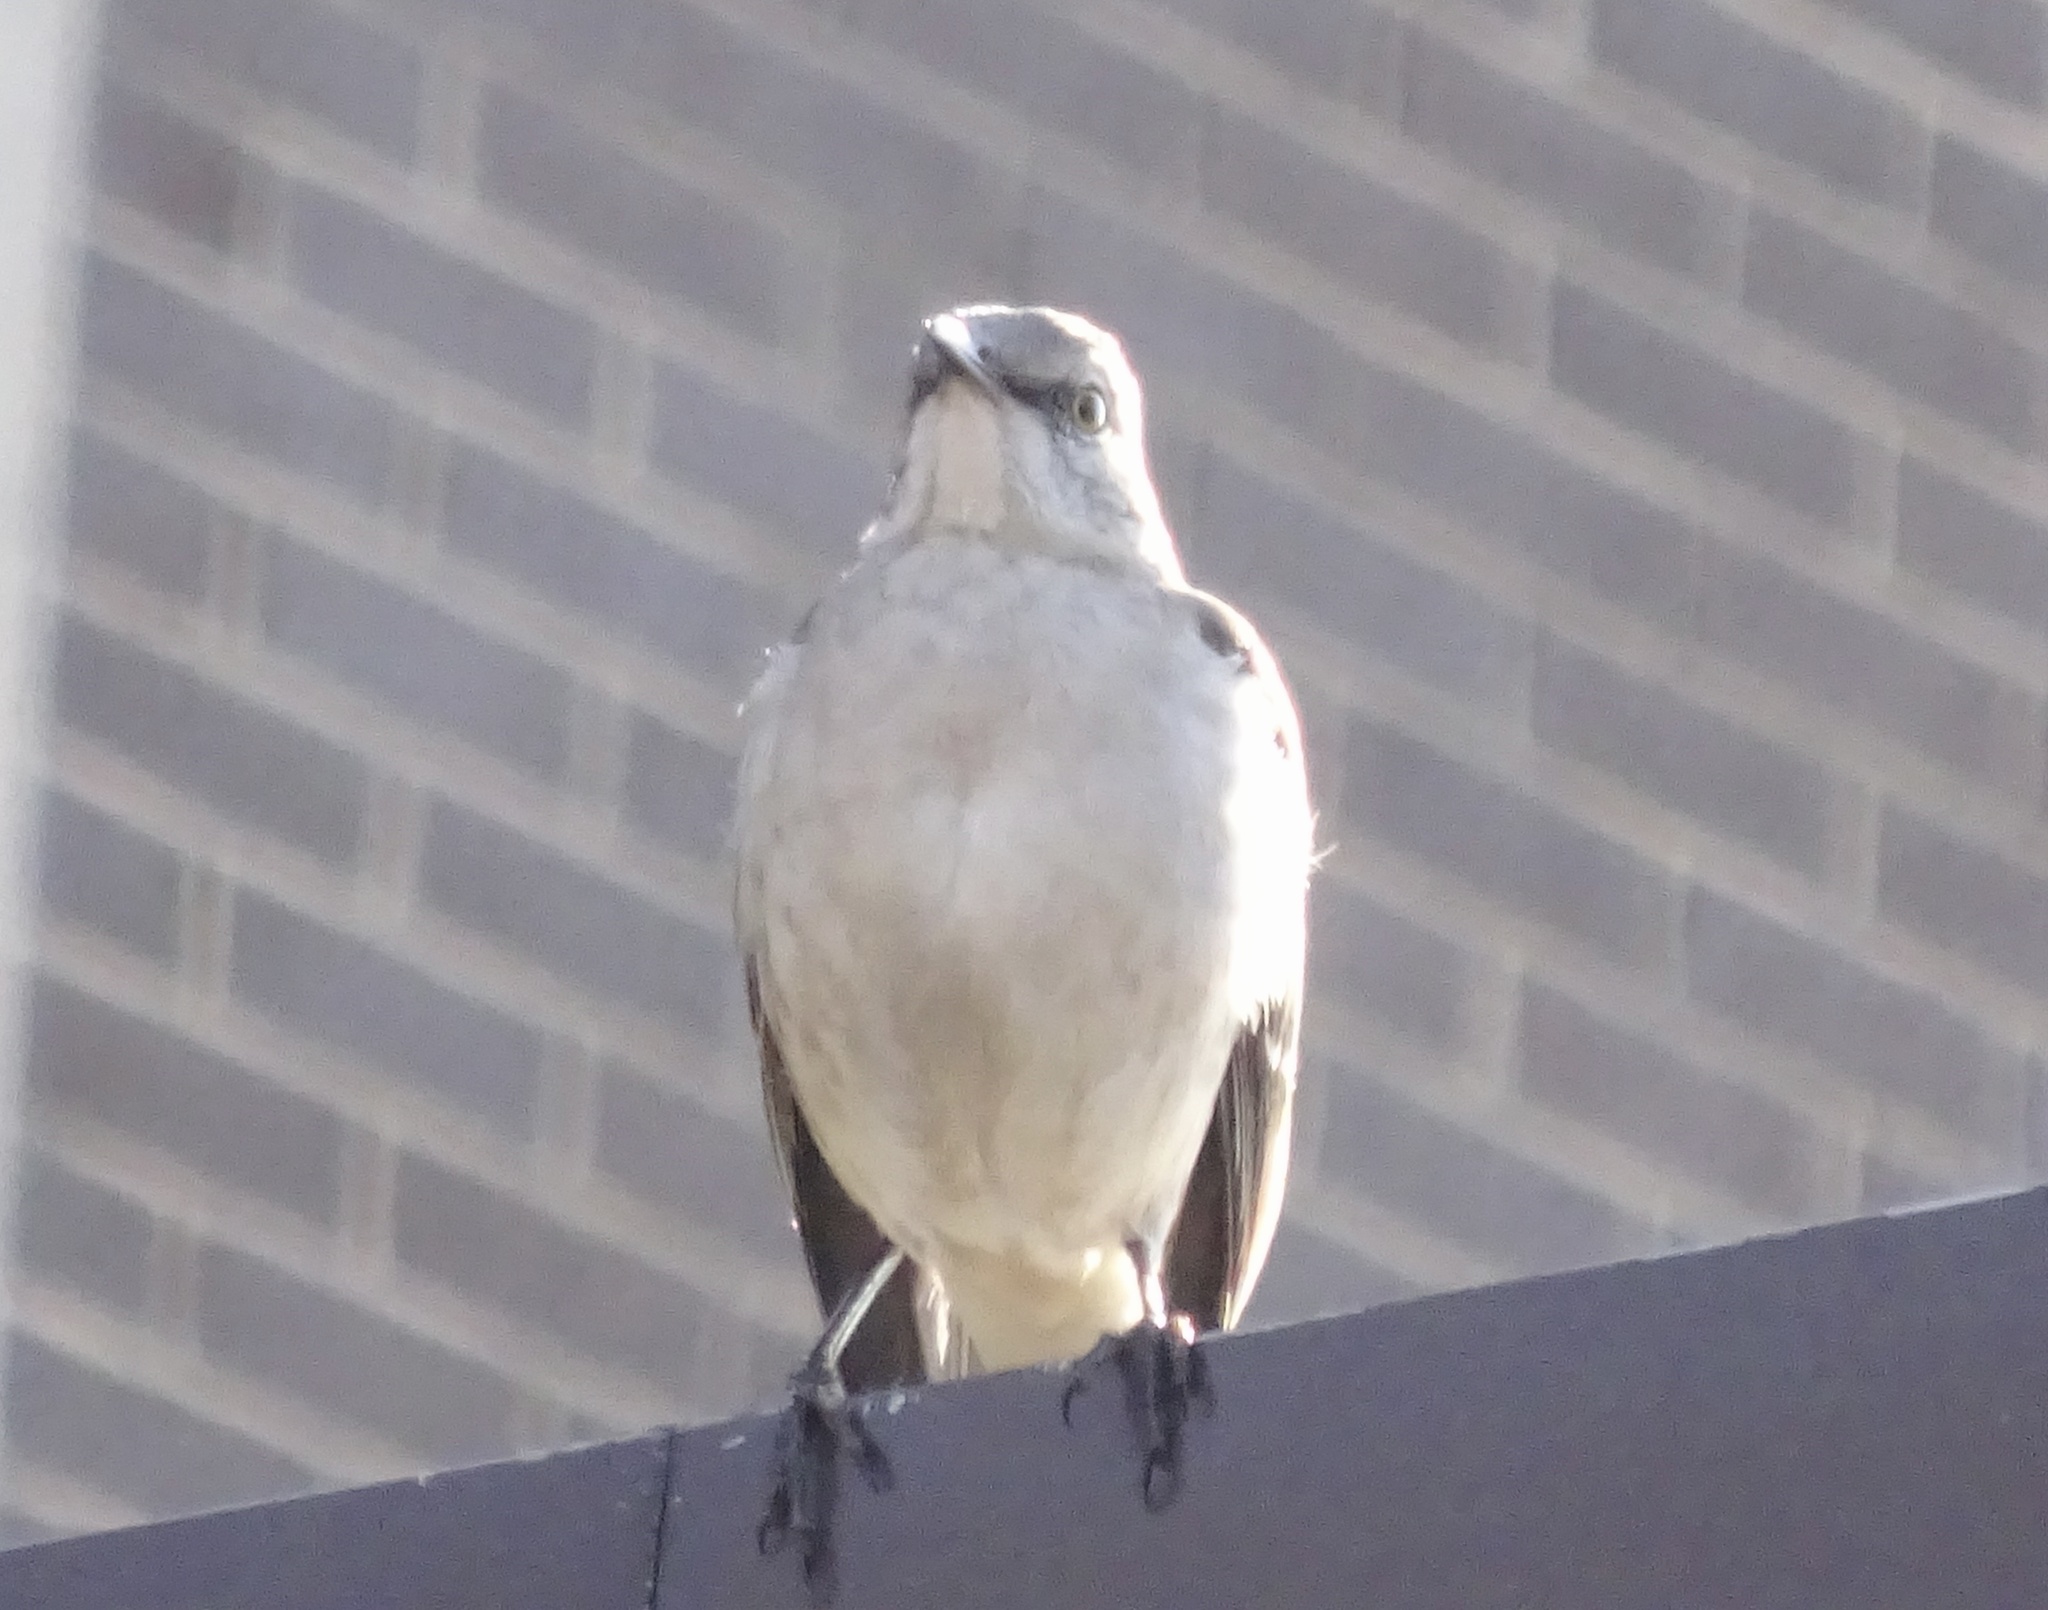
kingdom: Animalia
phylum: Chordata
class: Aves
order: Passeriformes
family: Mimidae
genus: Mimus
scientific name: Mimus polyglottos
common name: Northern mockingbird
